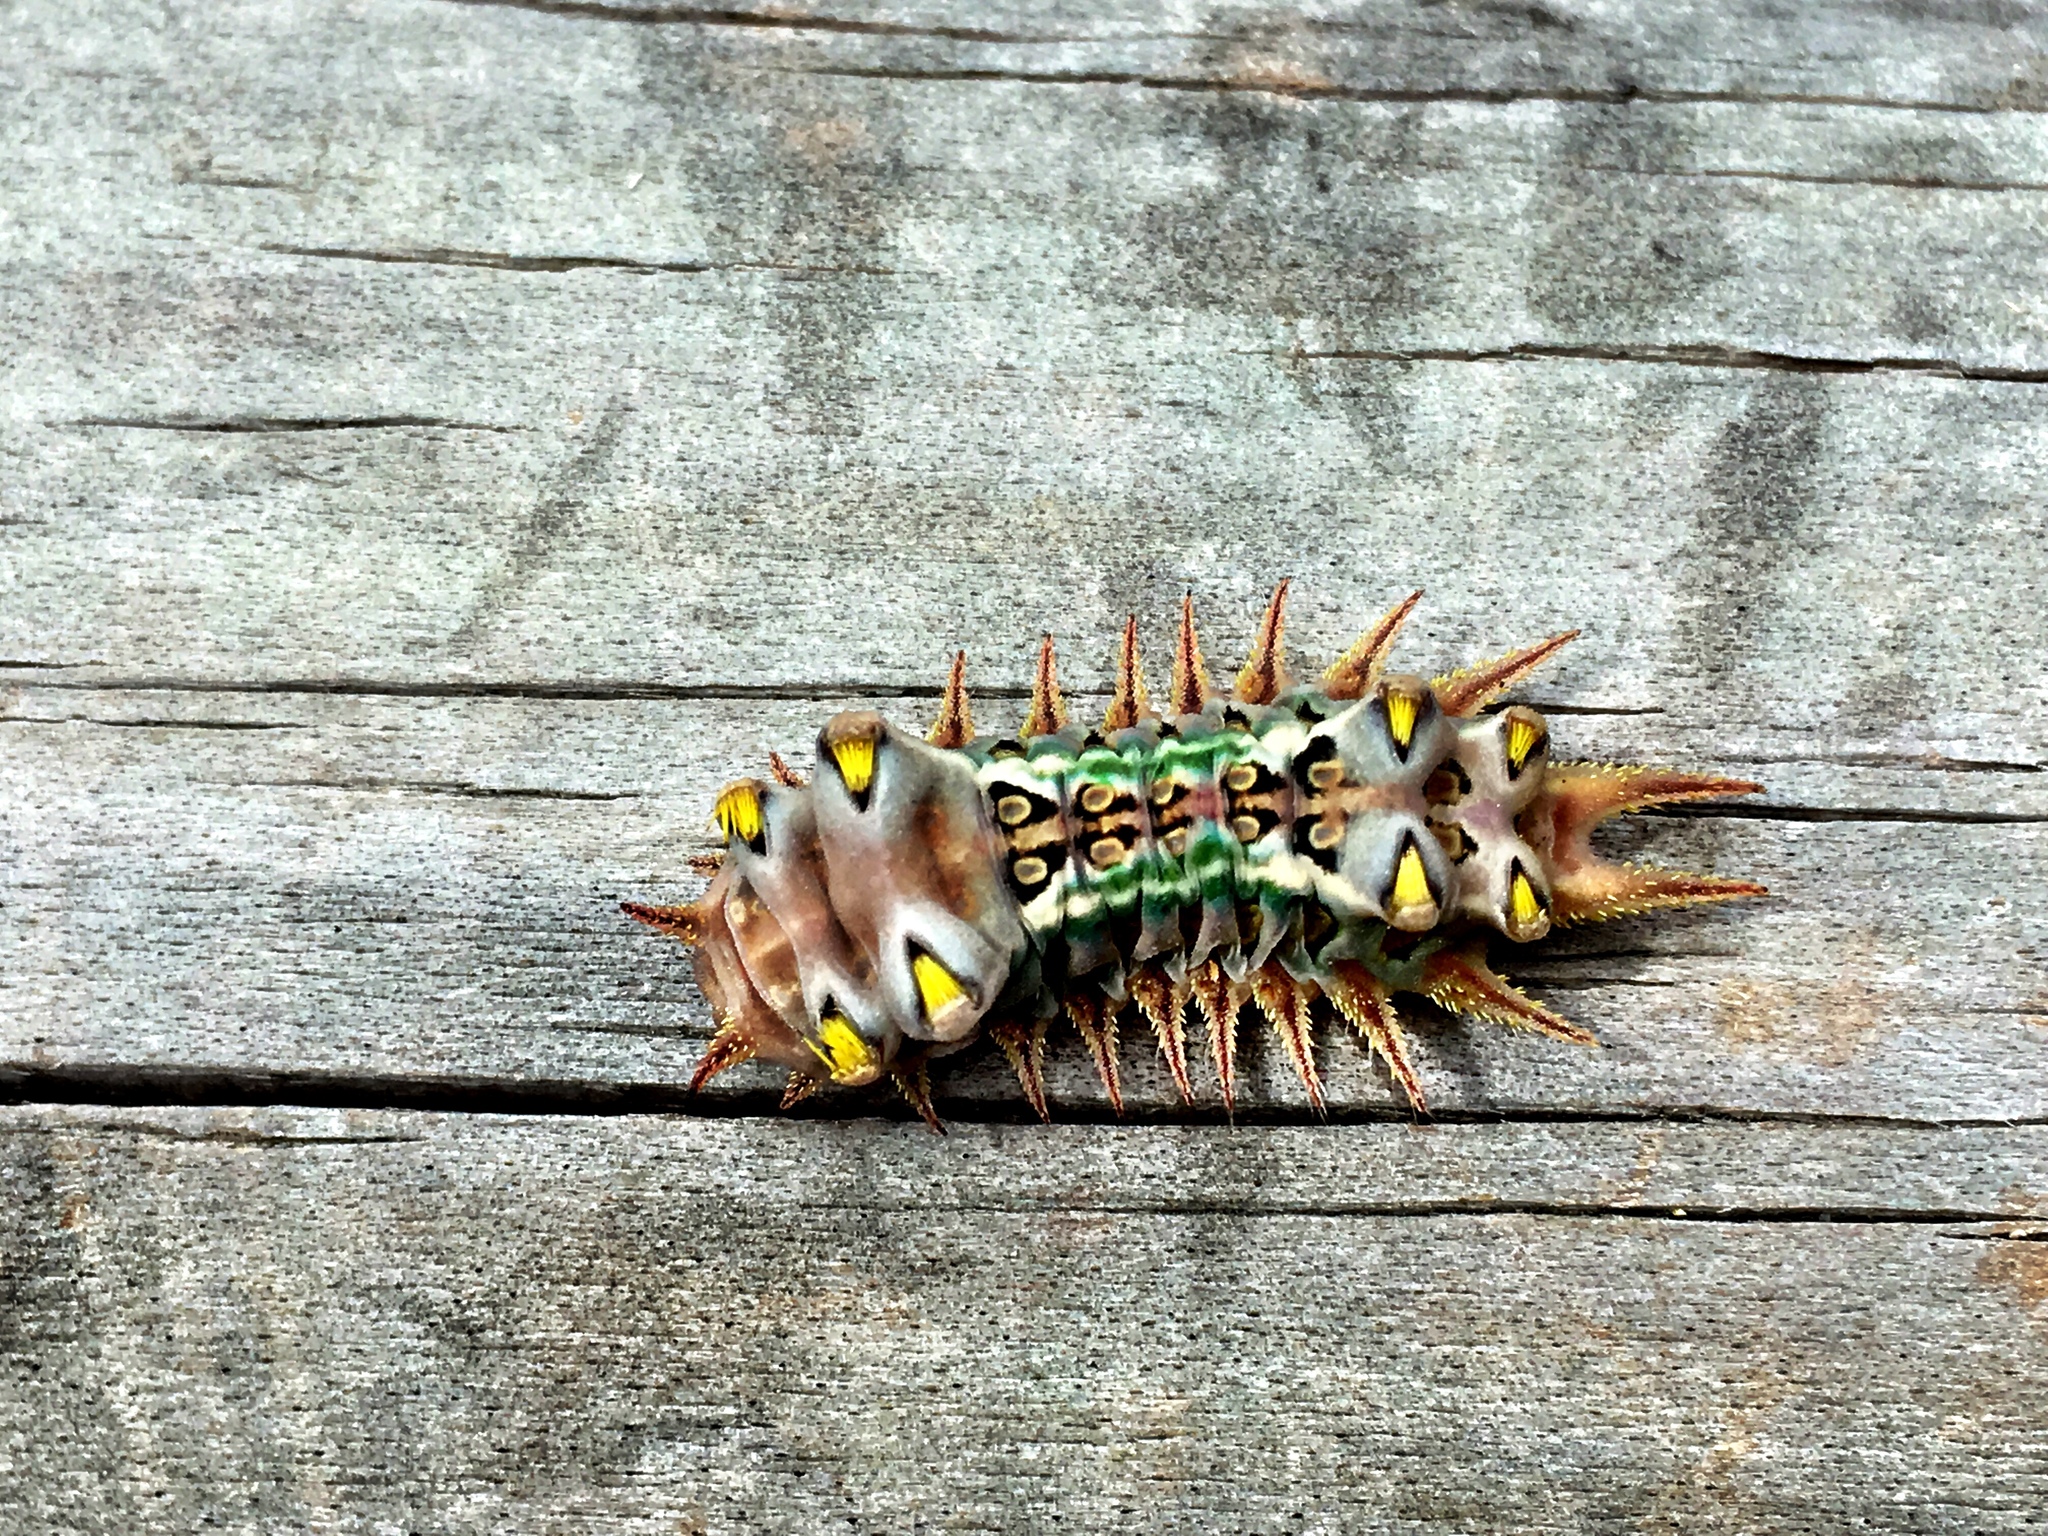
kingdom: Animalia
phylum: Arthropoda
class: Insecta
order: Lepidoptera
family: Limacodidae
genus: Doratifera
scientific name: Doratifera oxleyi
